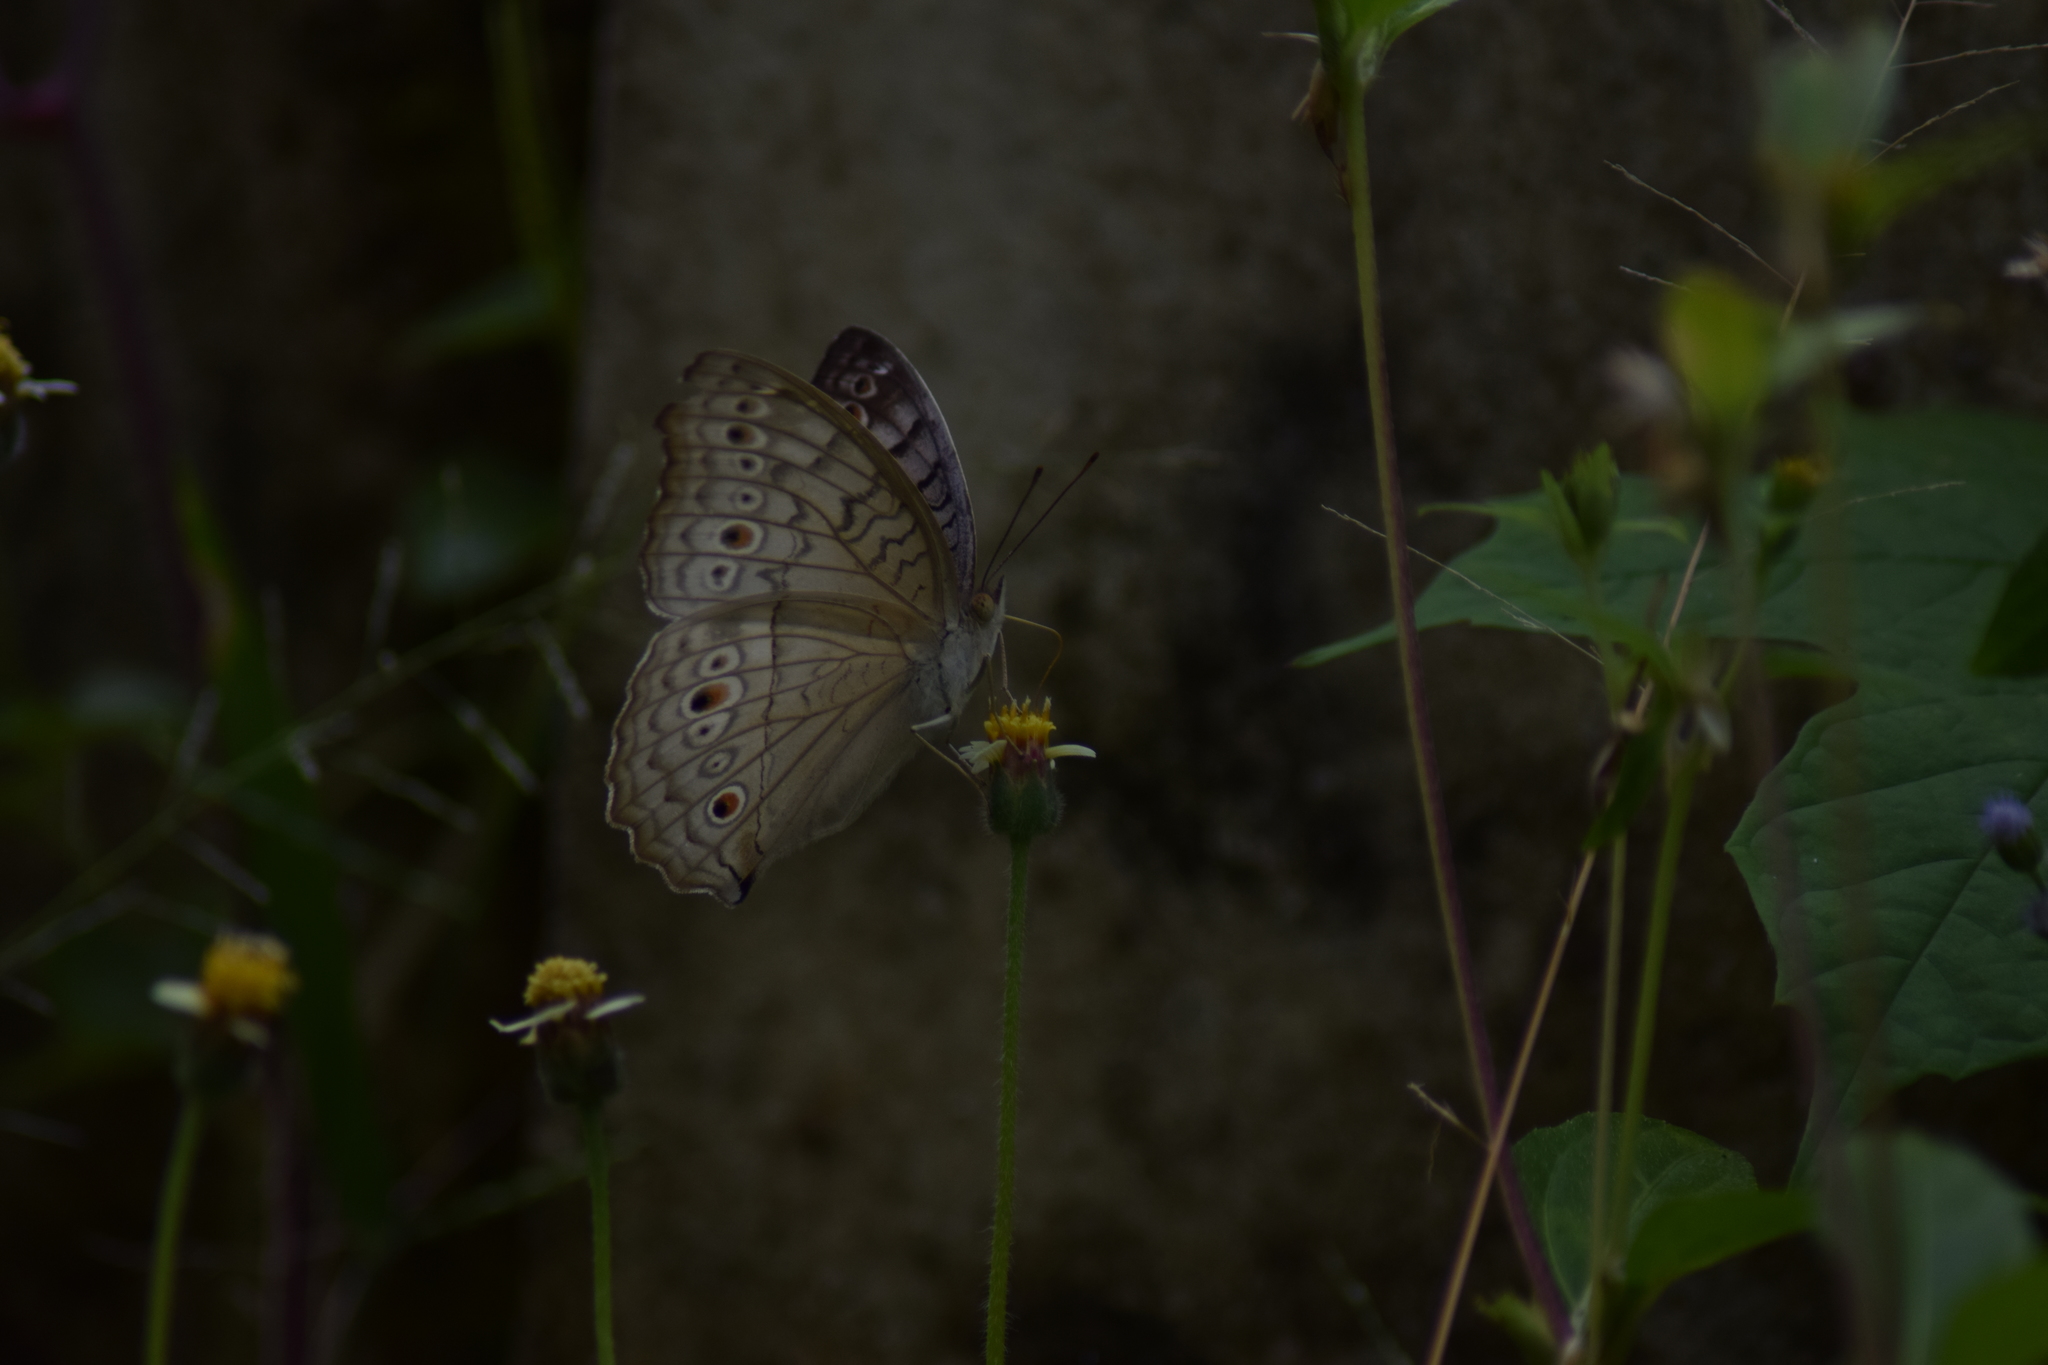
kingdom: Animalia
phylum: Arthropoda
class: Insecta
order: Lepidoptera
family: Nymphalidae
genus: Junonia
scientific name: Junonia atlites
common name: Grey pansy
